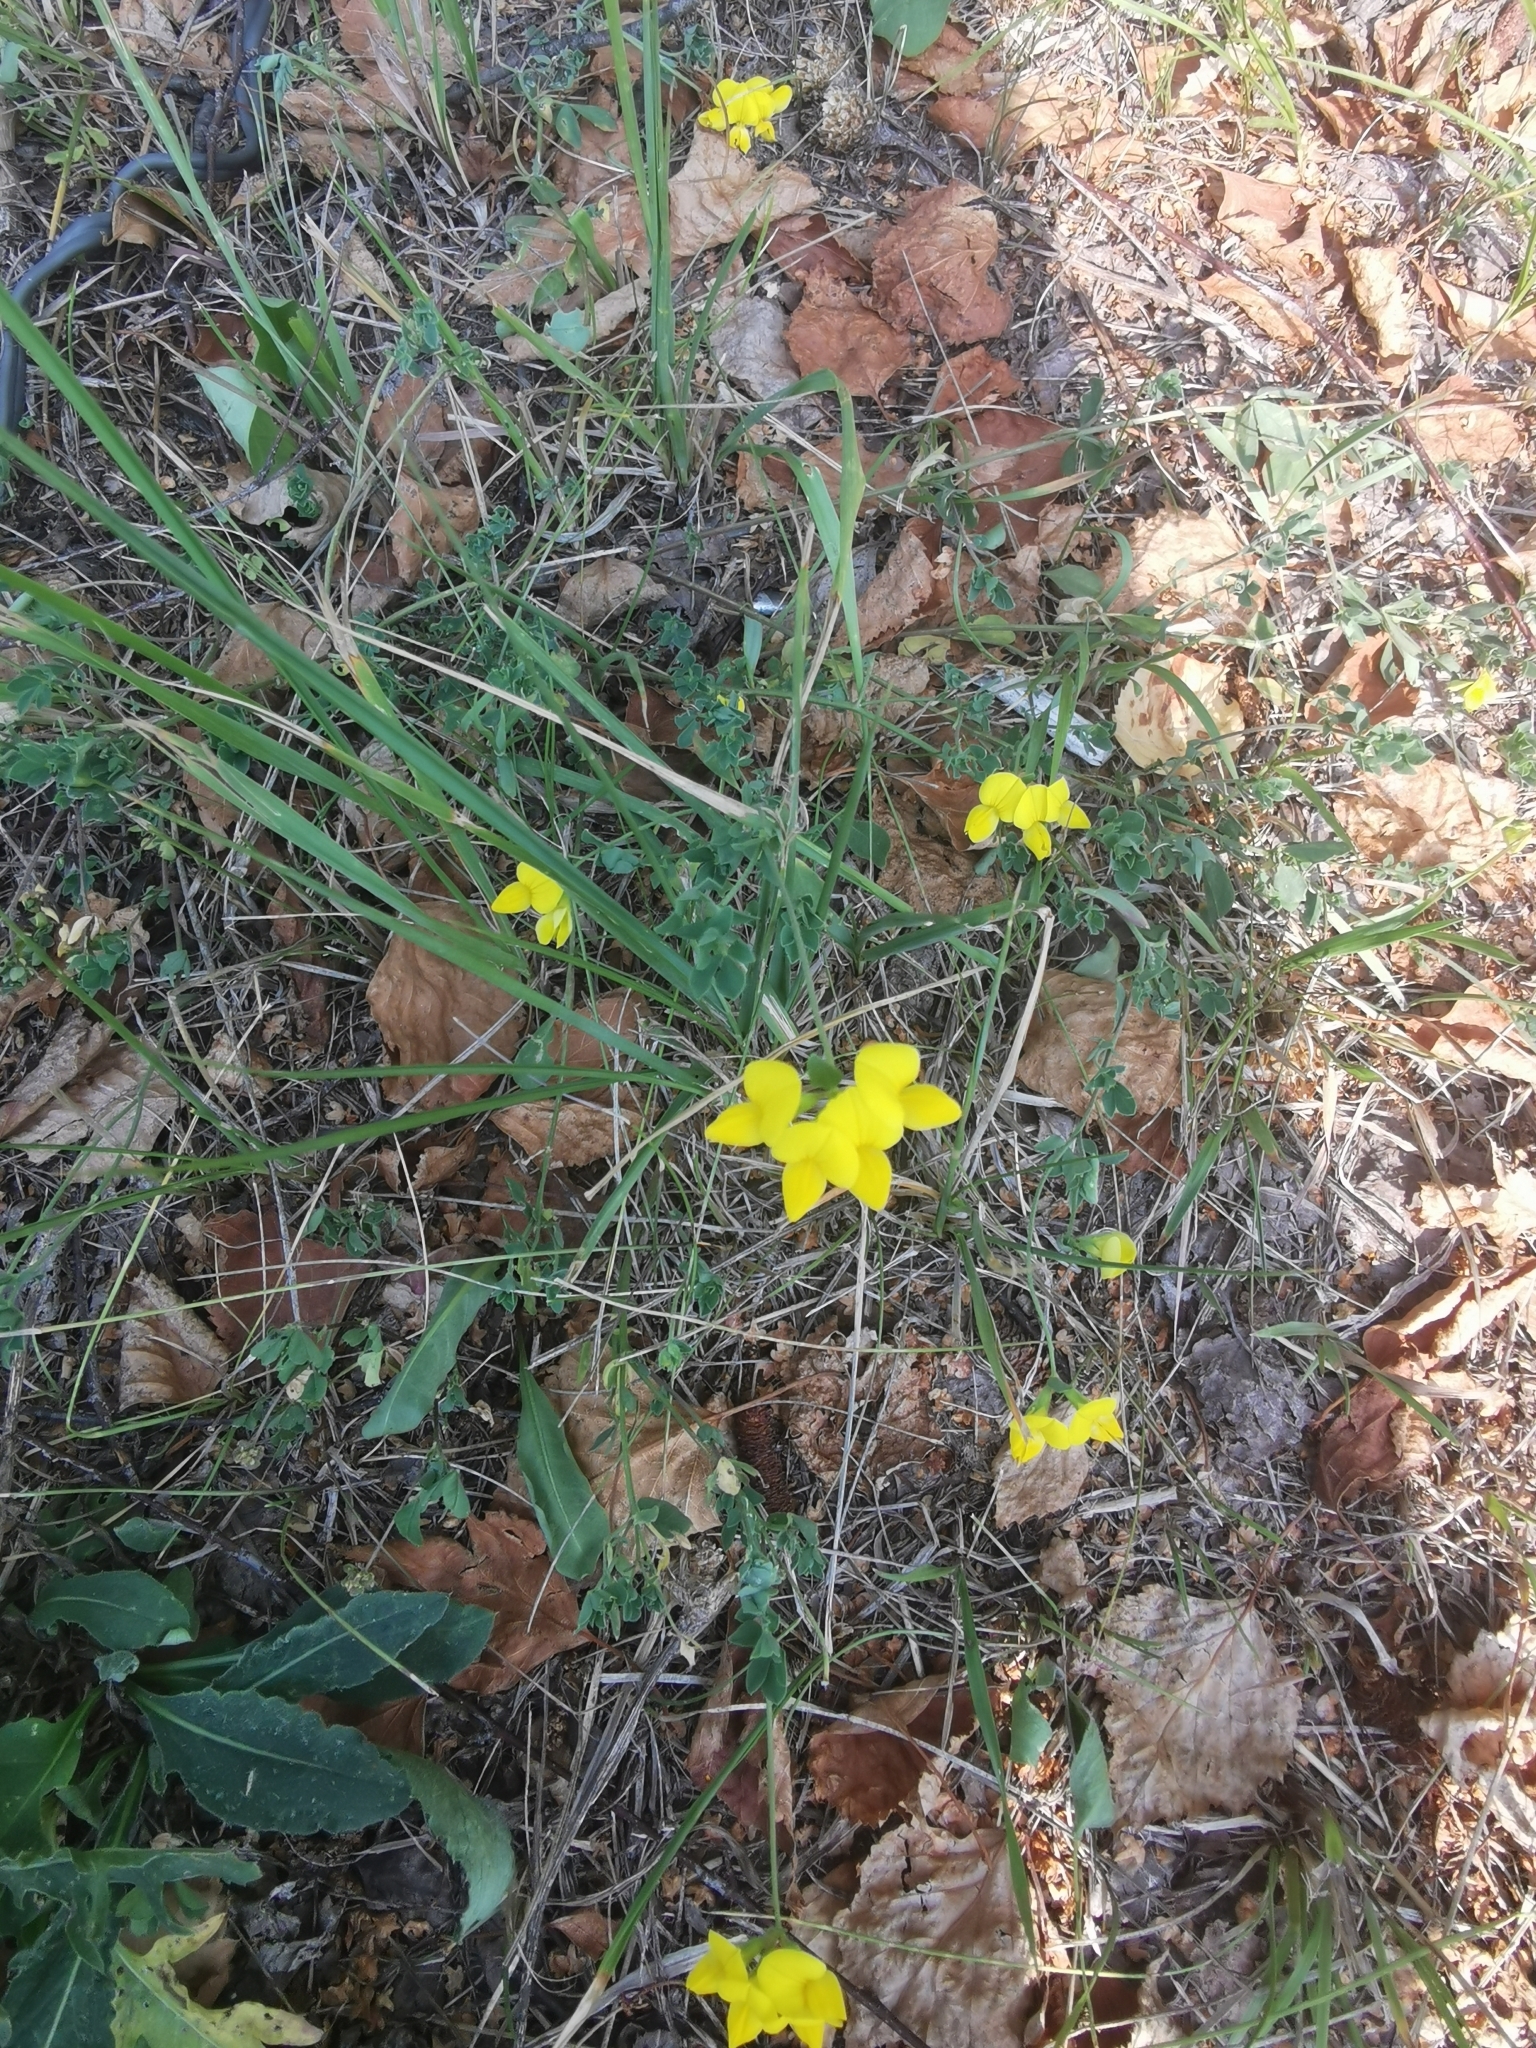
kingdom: Plantae
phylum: Tracheophyta
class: Magnoliopsida
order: Fabales
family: Fabaceae
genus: Lotus
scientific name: Lotus corniculatus
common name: Common bird's-foot-trefoil
